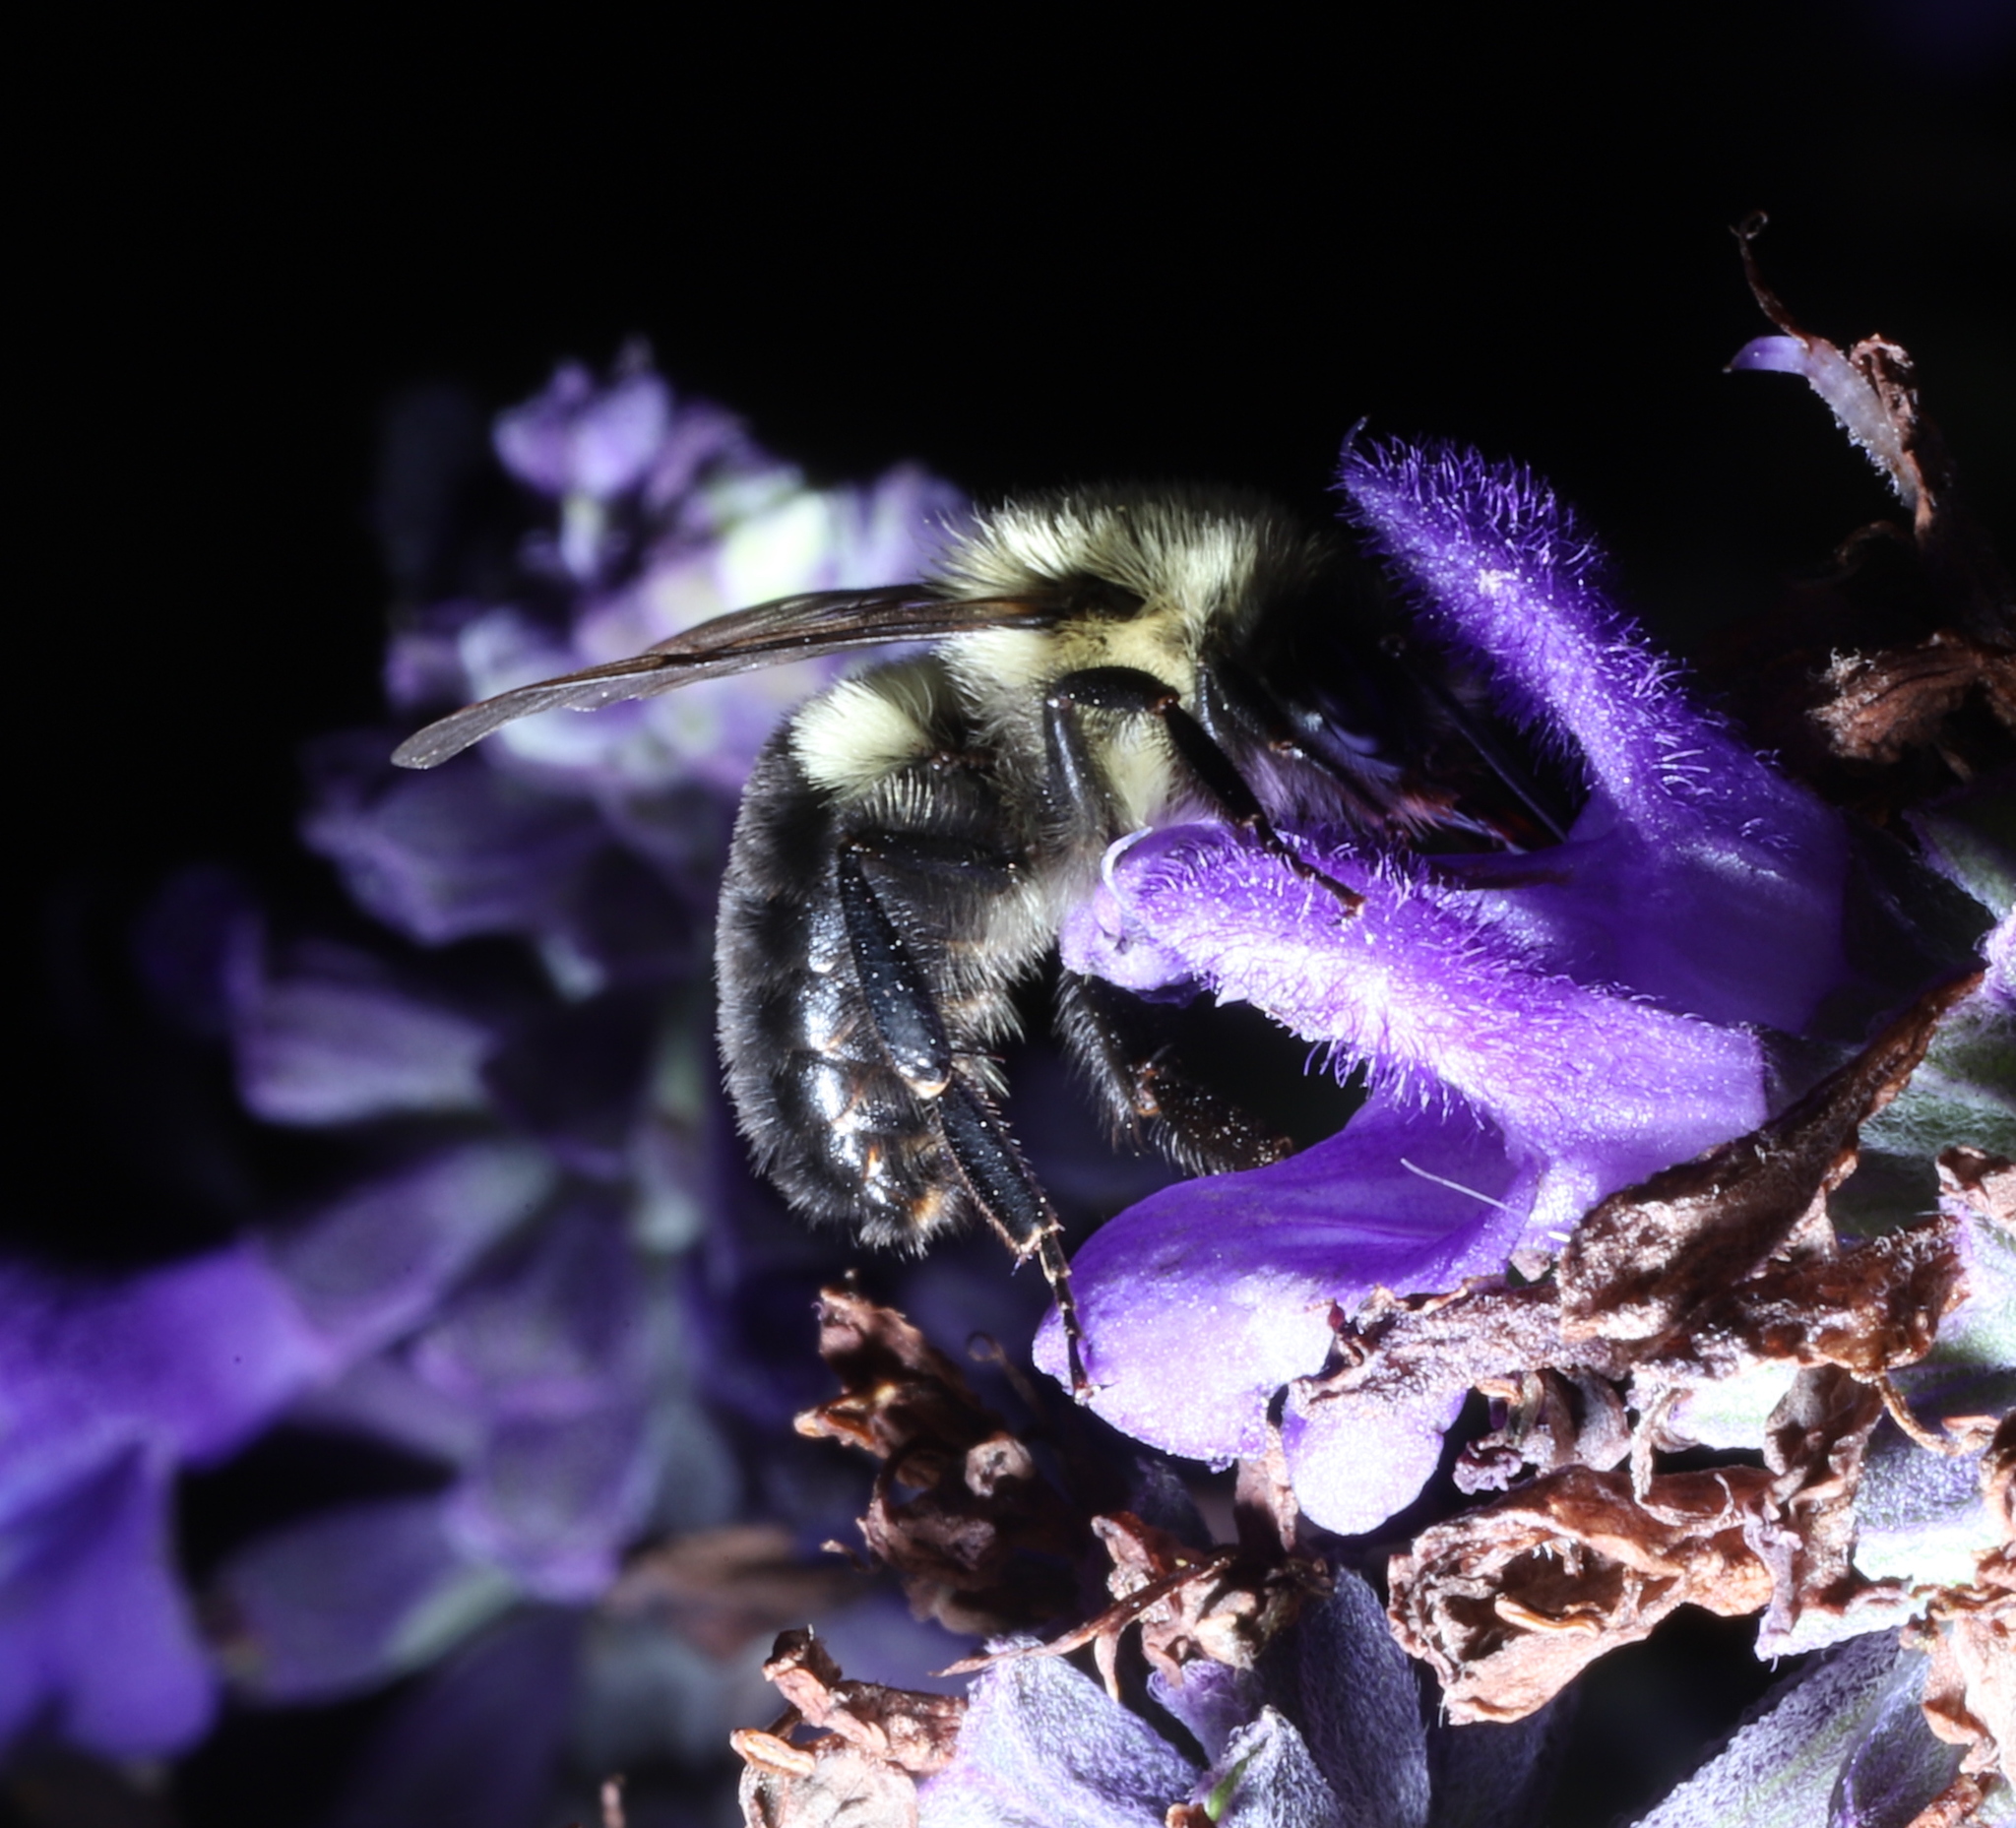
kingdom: Animalia
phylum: Arthropoda
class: Insecta
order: Hymenoptera
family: Apidae
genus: Bombus
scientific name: Bombus impatiens
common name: Common eastern bumble bee
